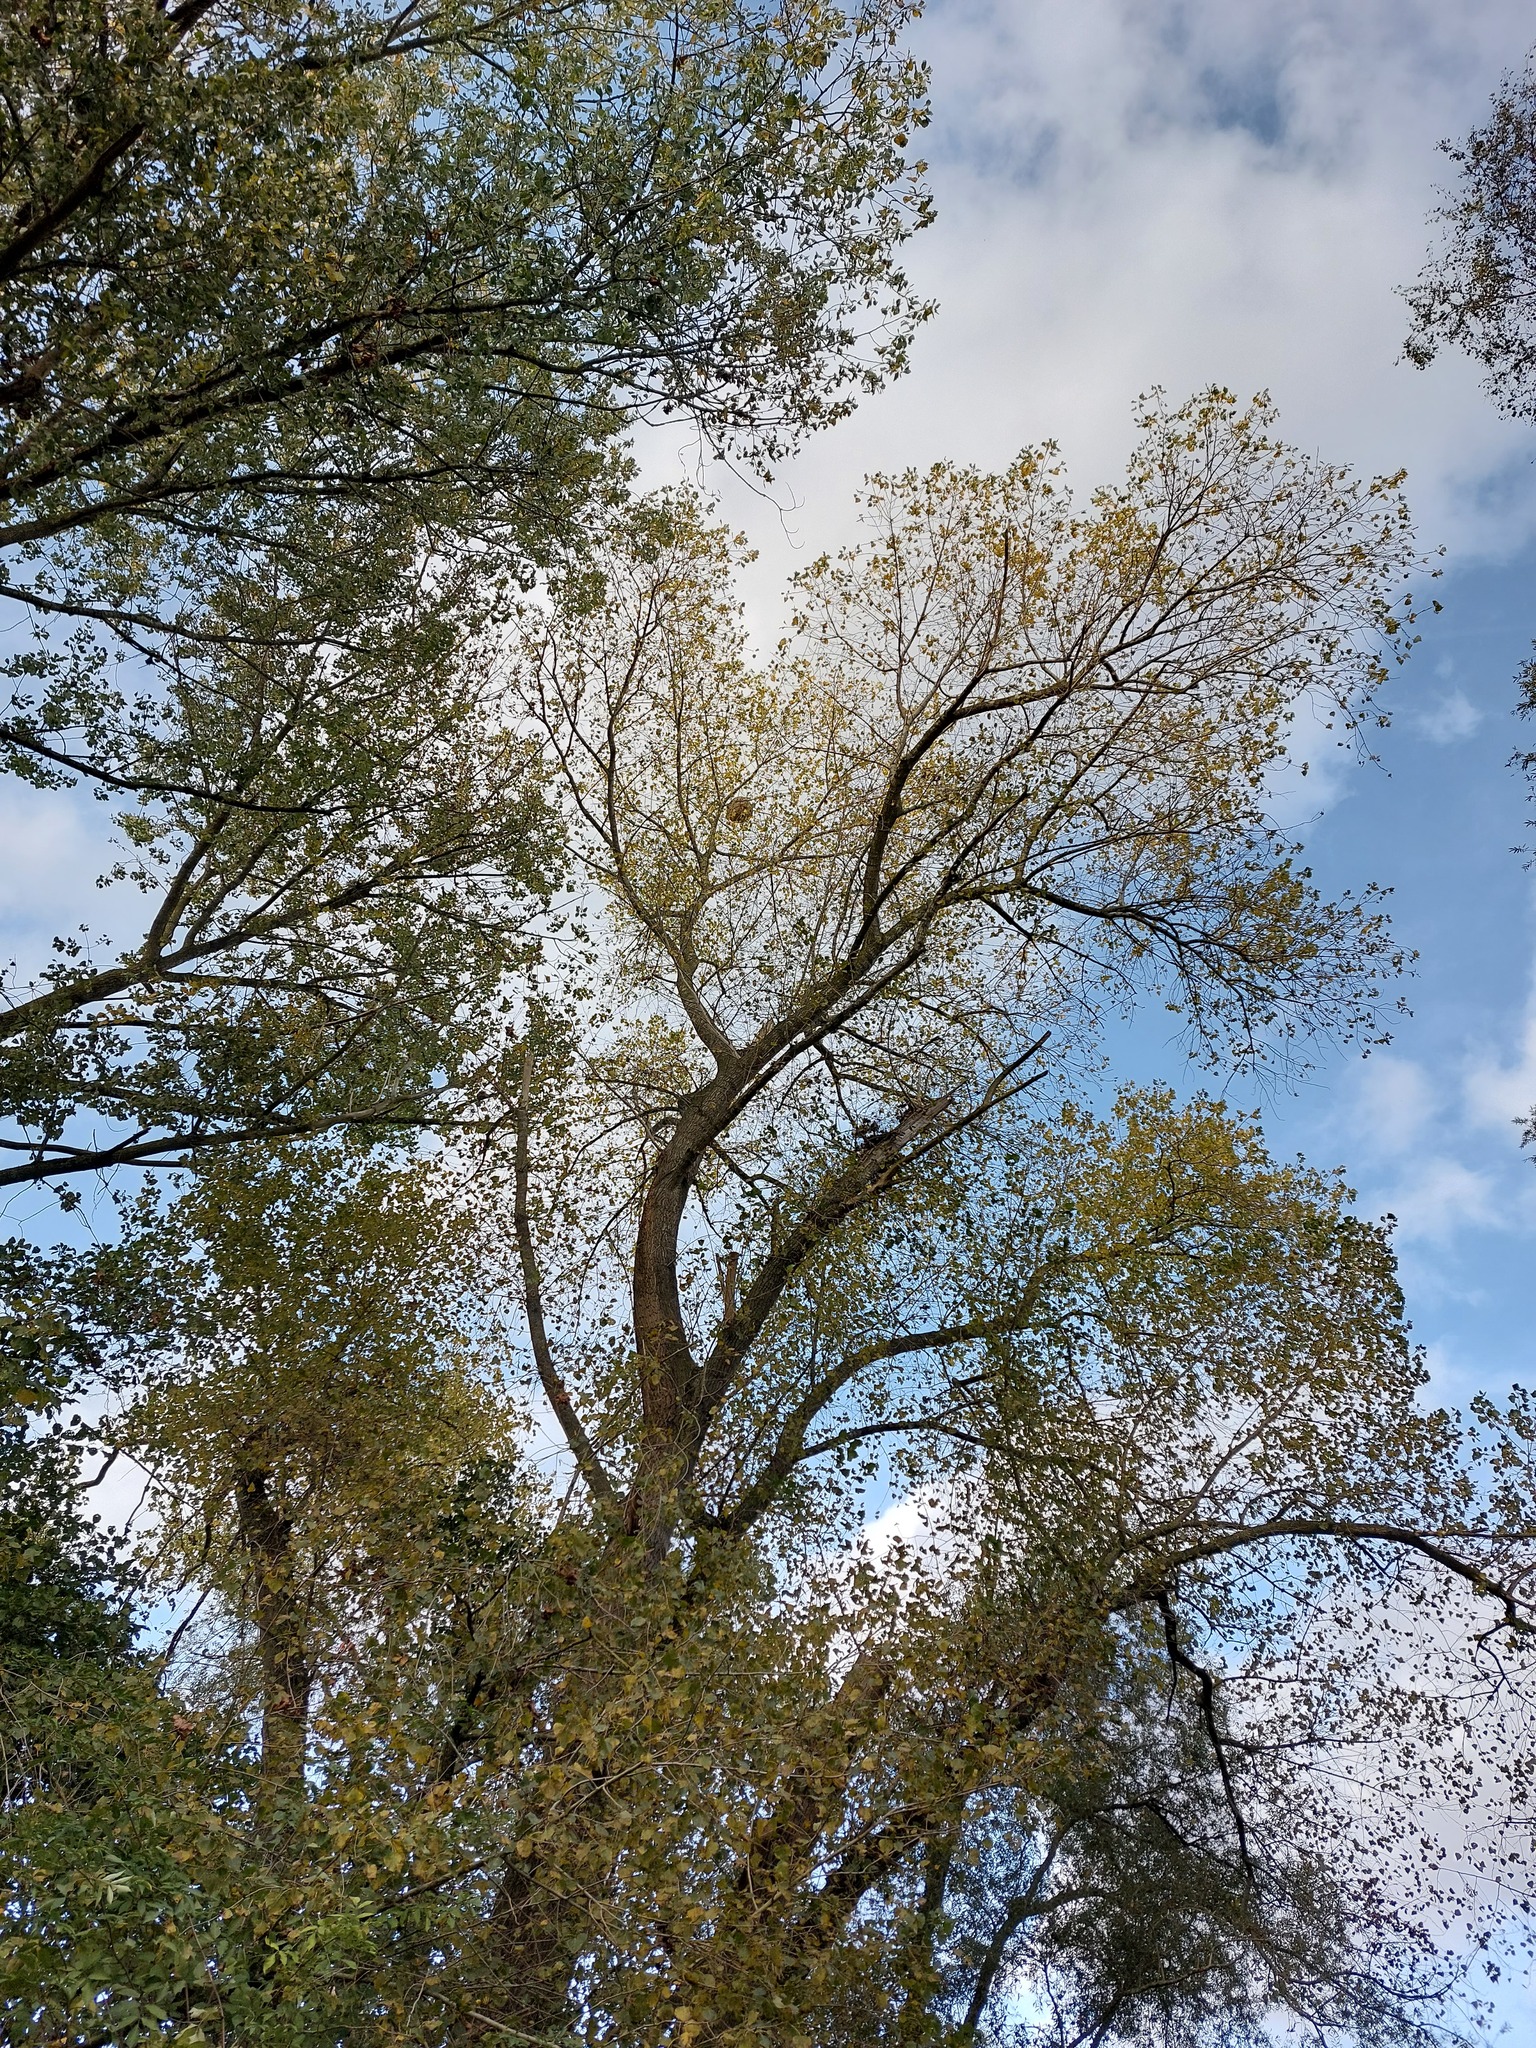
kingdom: Animalia
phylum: Arthropoda
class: Insecta
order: Hymenoptera
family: Vespidae
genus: Vespa
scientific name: Vespa velutina
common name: Asian hornet
